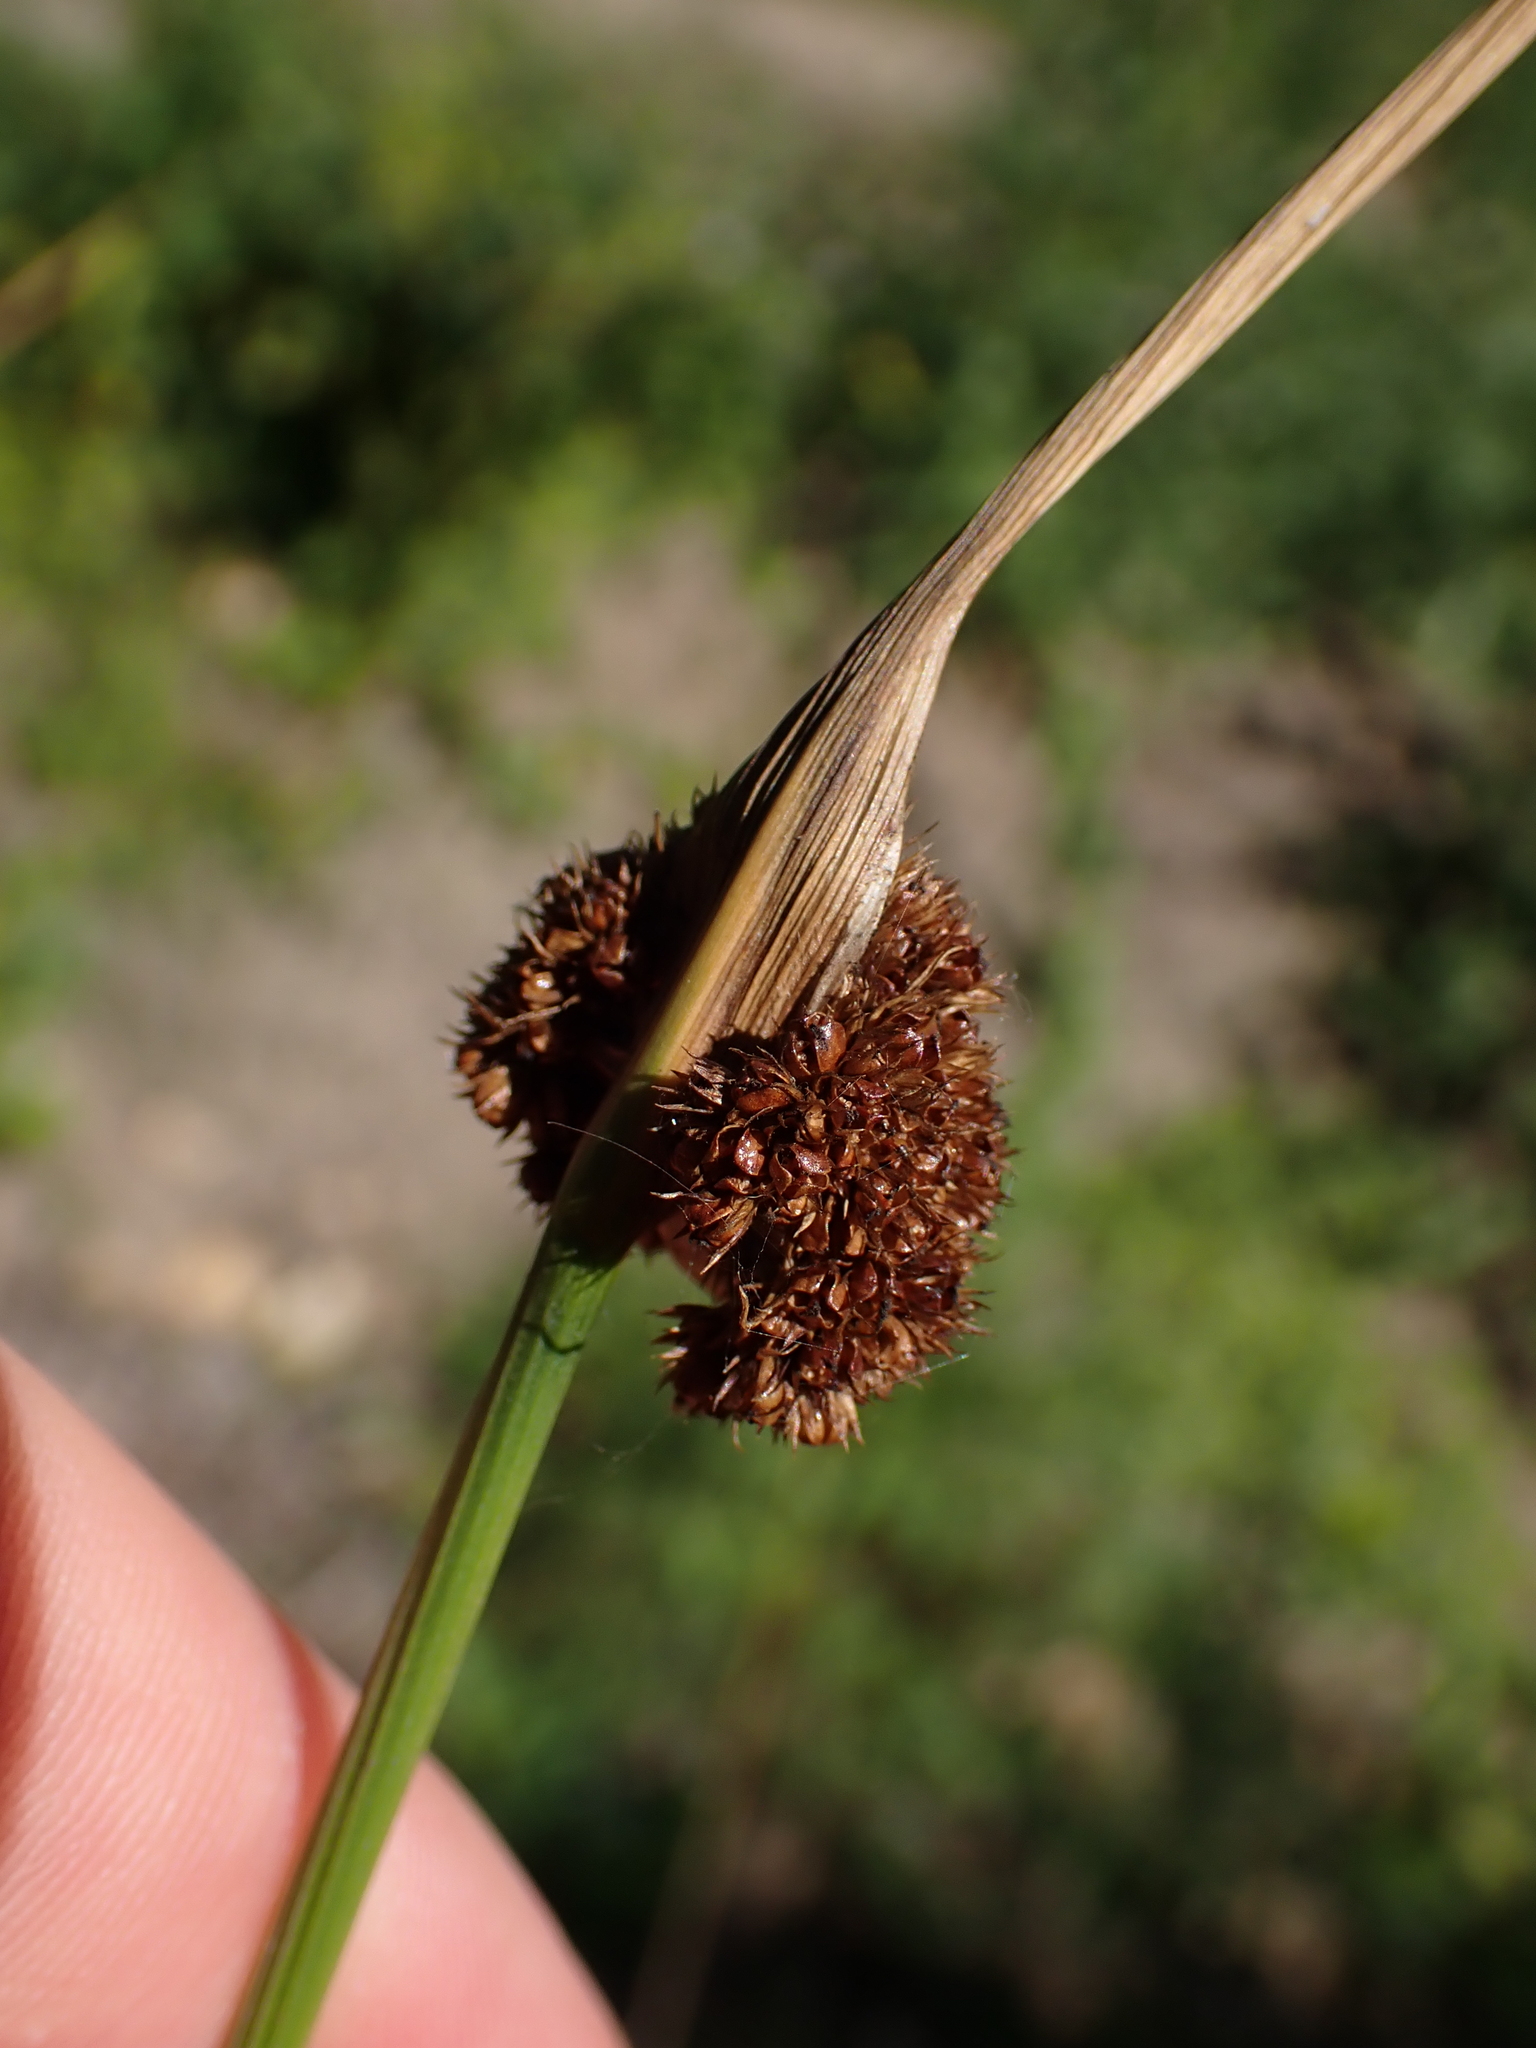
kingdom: Plantae
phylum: Tracheophyta
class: Liliopsida
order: Poales
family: Juncaceae
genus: Juncus
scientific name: Juncus conglomeratus
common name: Compact rush
